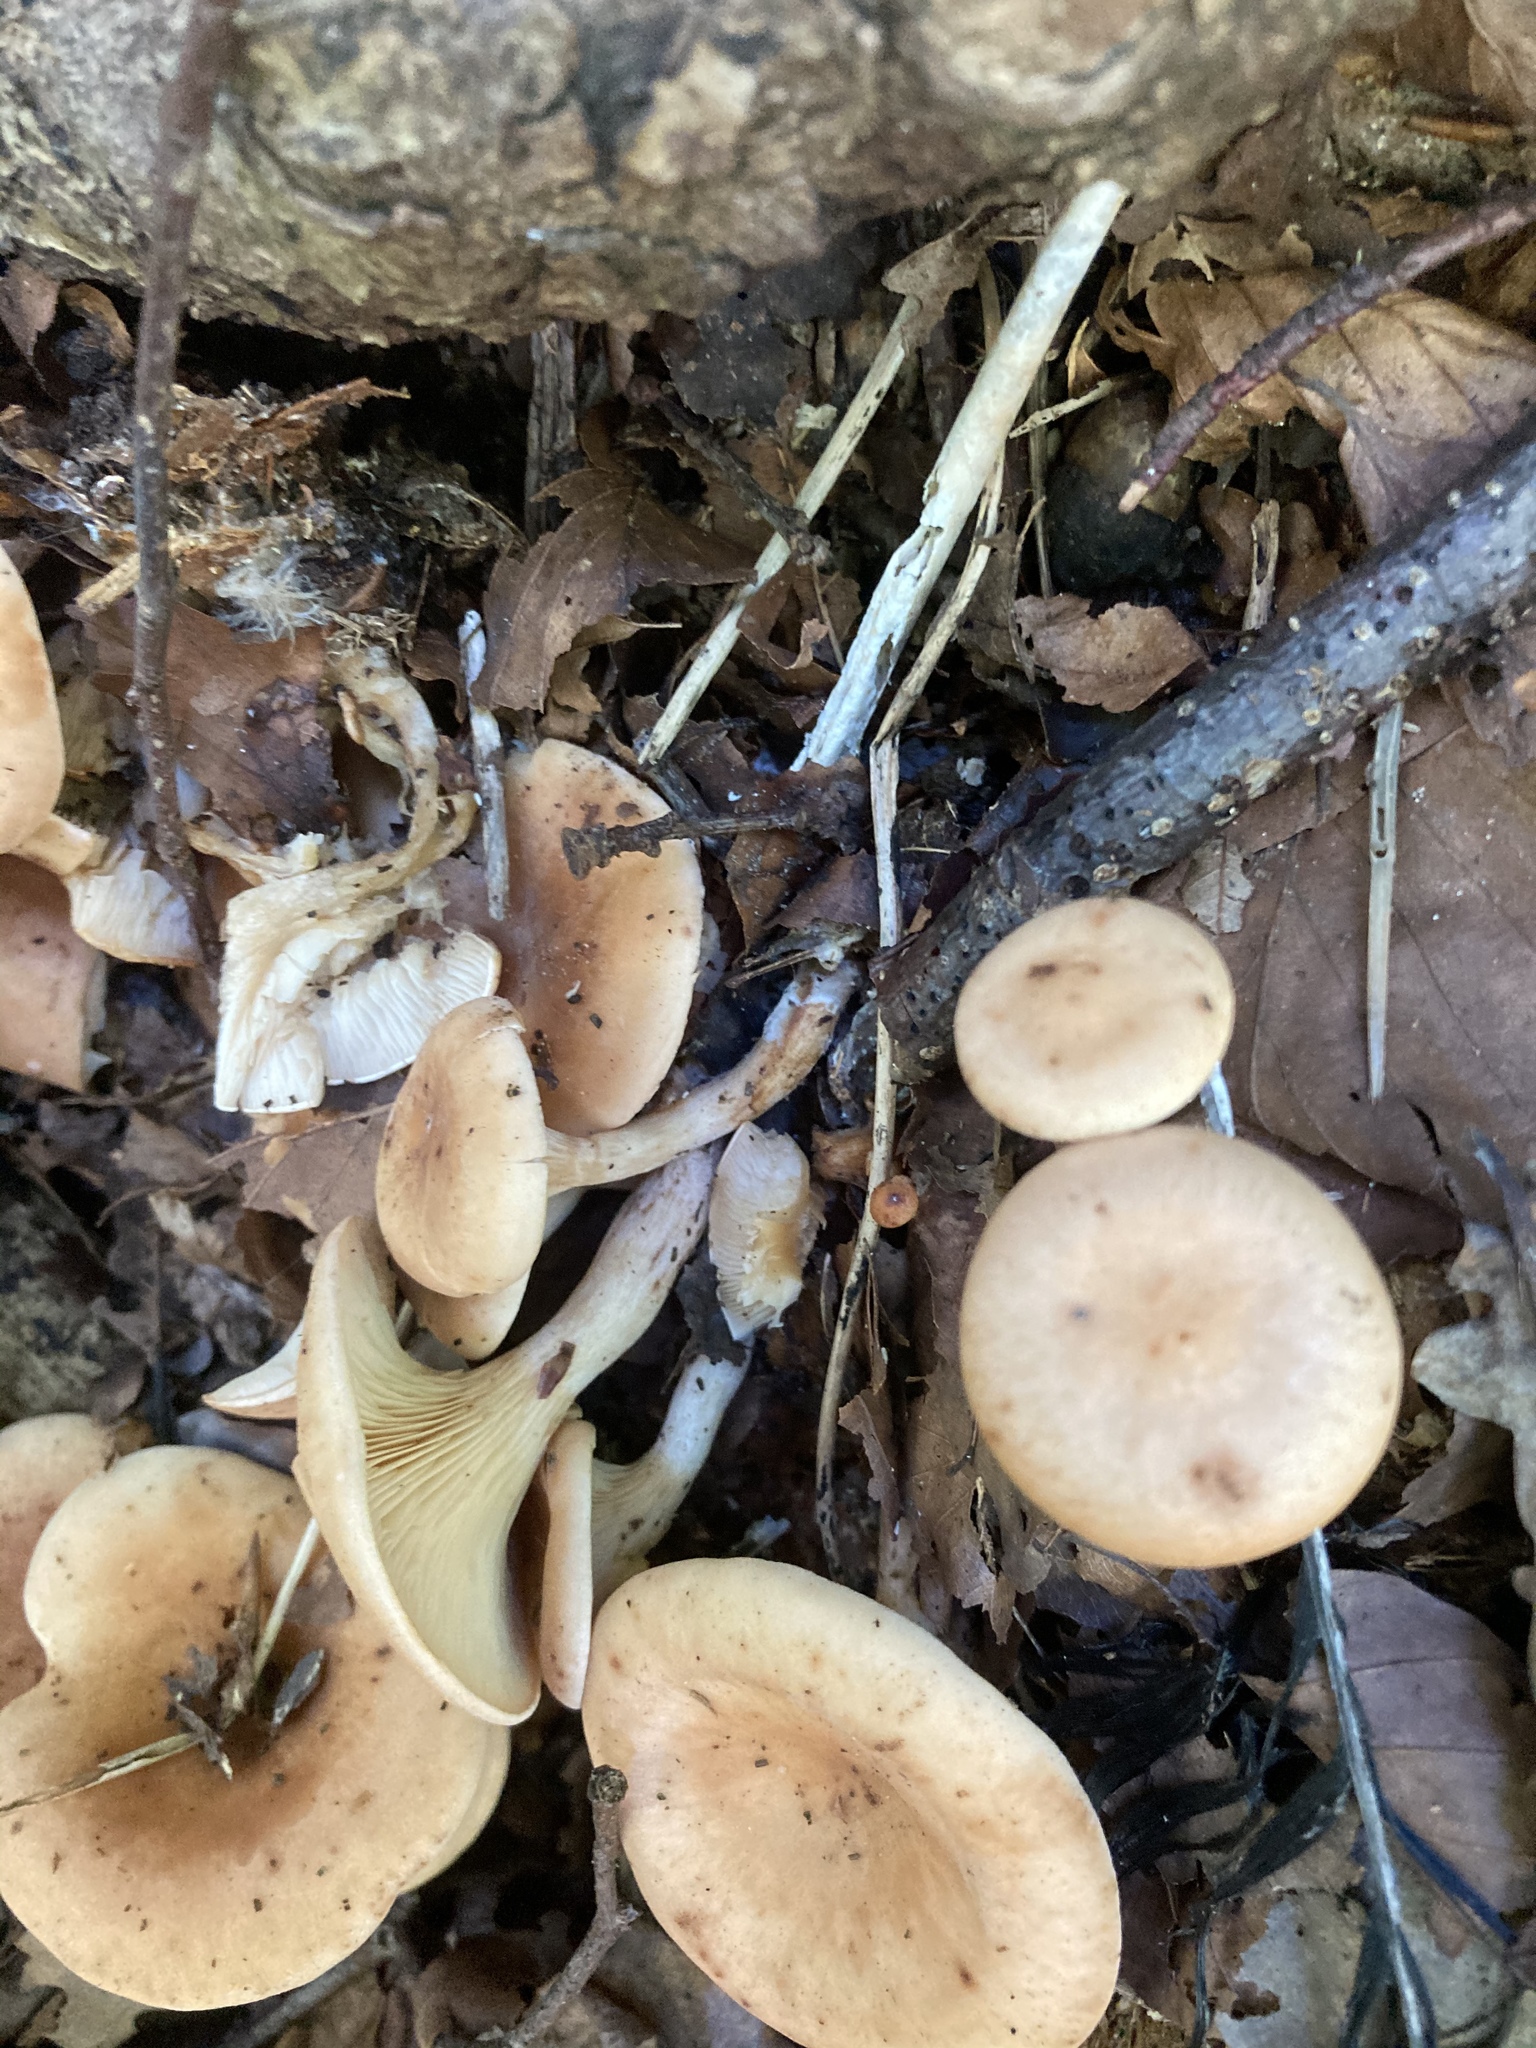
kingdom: Fungi
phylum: Basidiomycota
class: Agaricomycetes
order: Agaricales
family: Tricholomataceae
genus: Paralepista
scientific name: Paralepista flaccida
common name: Tawny funnel cap
